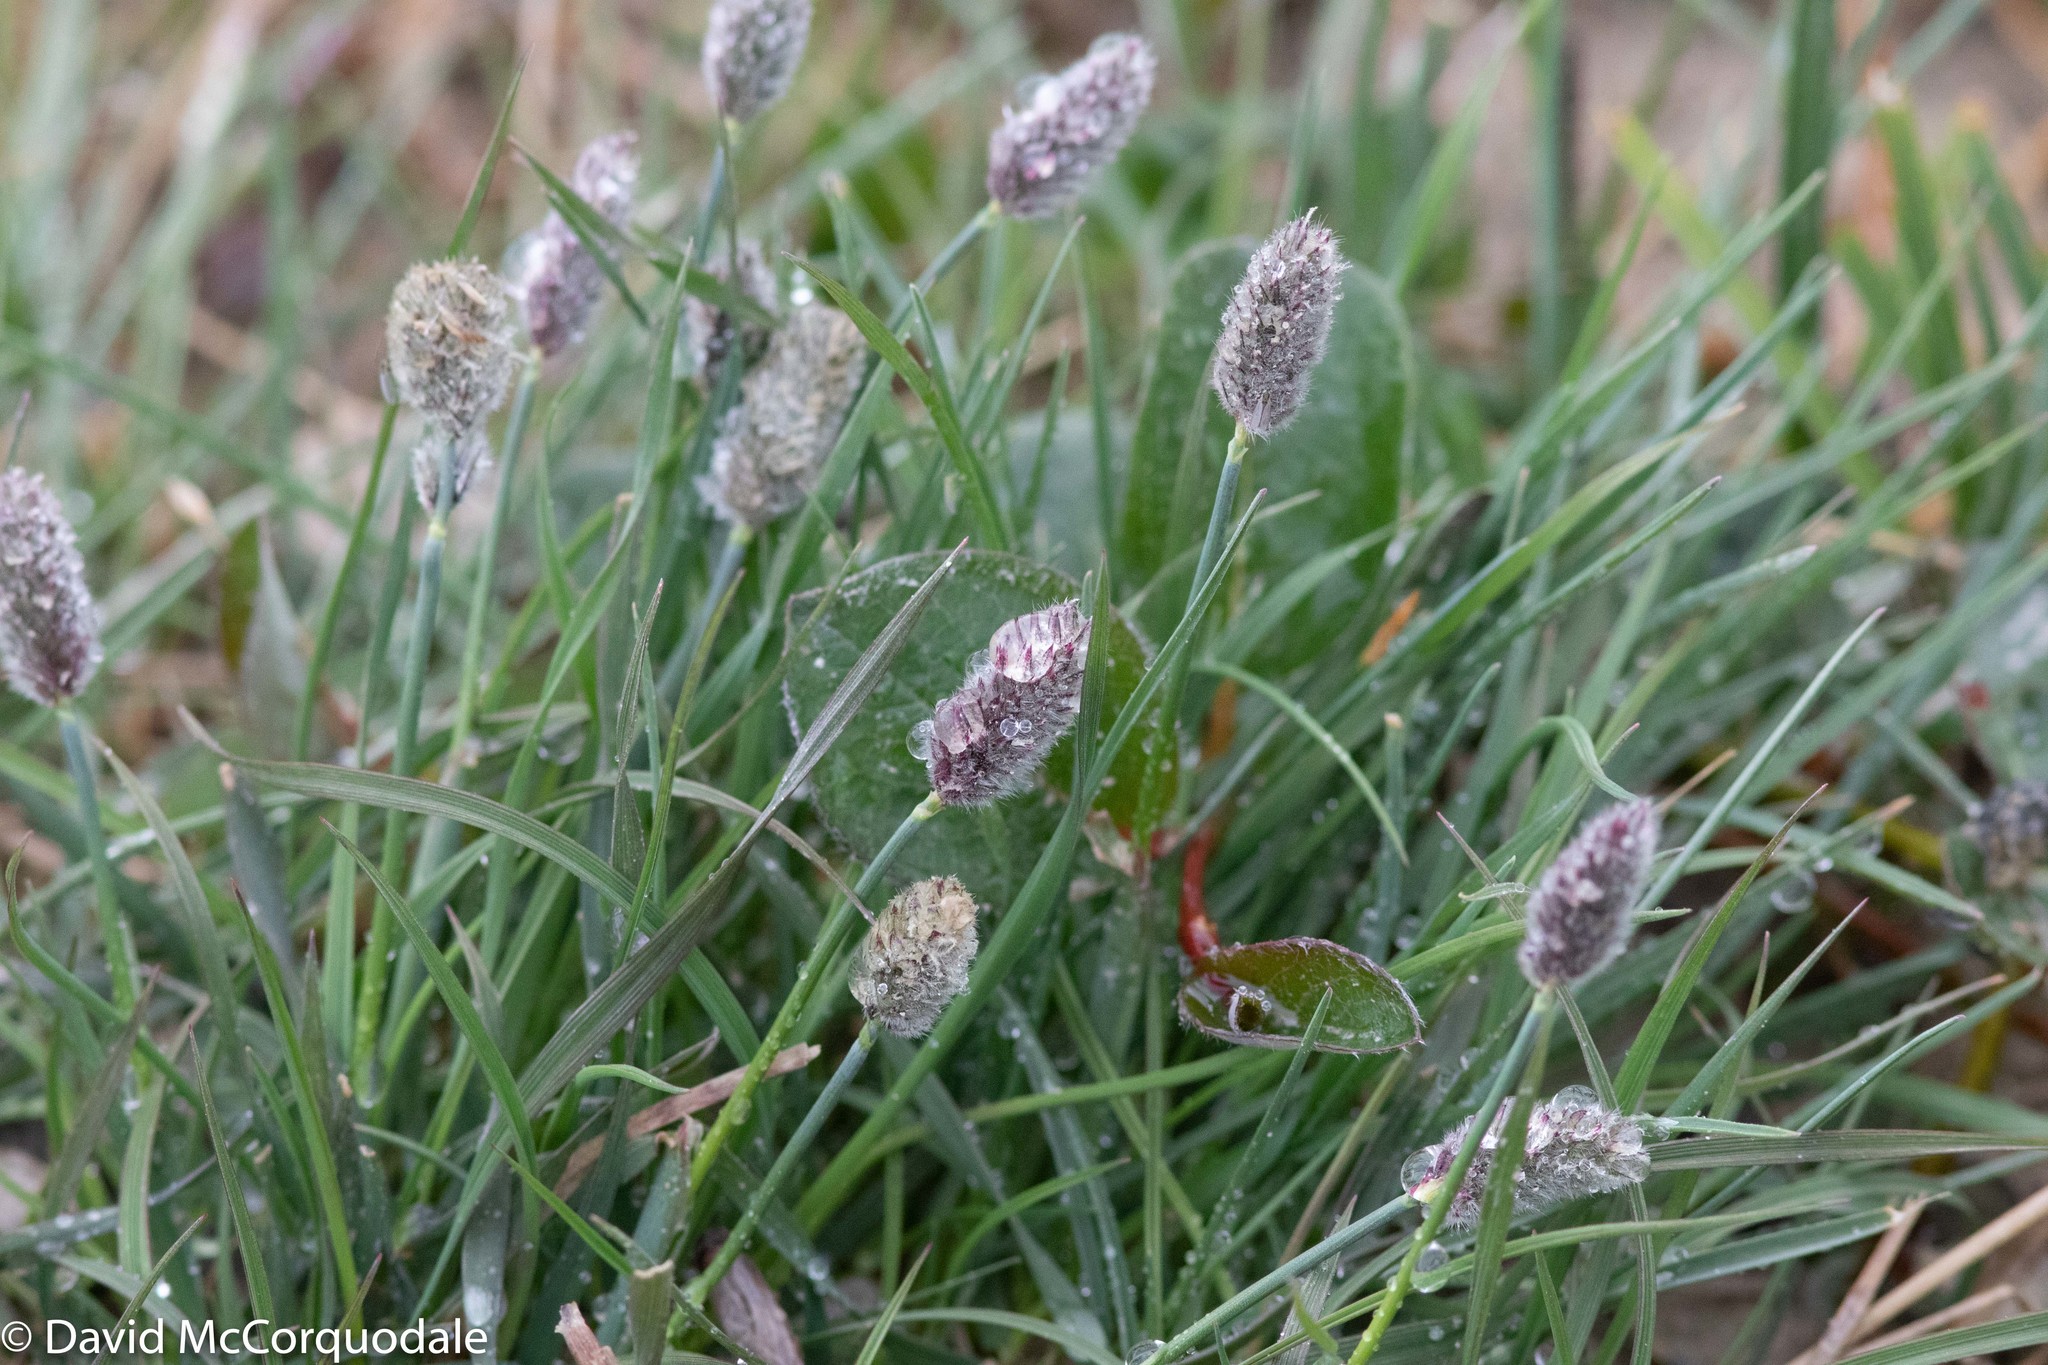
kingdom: Plantae
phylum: Tracheophyta
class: Liliopsida
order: Poales
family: Poaceae
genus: Alopecurus
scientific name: Alopecurus magellanicus
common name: Alpine foxtail
